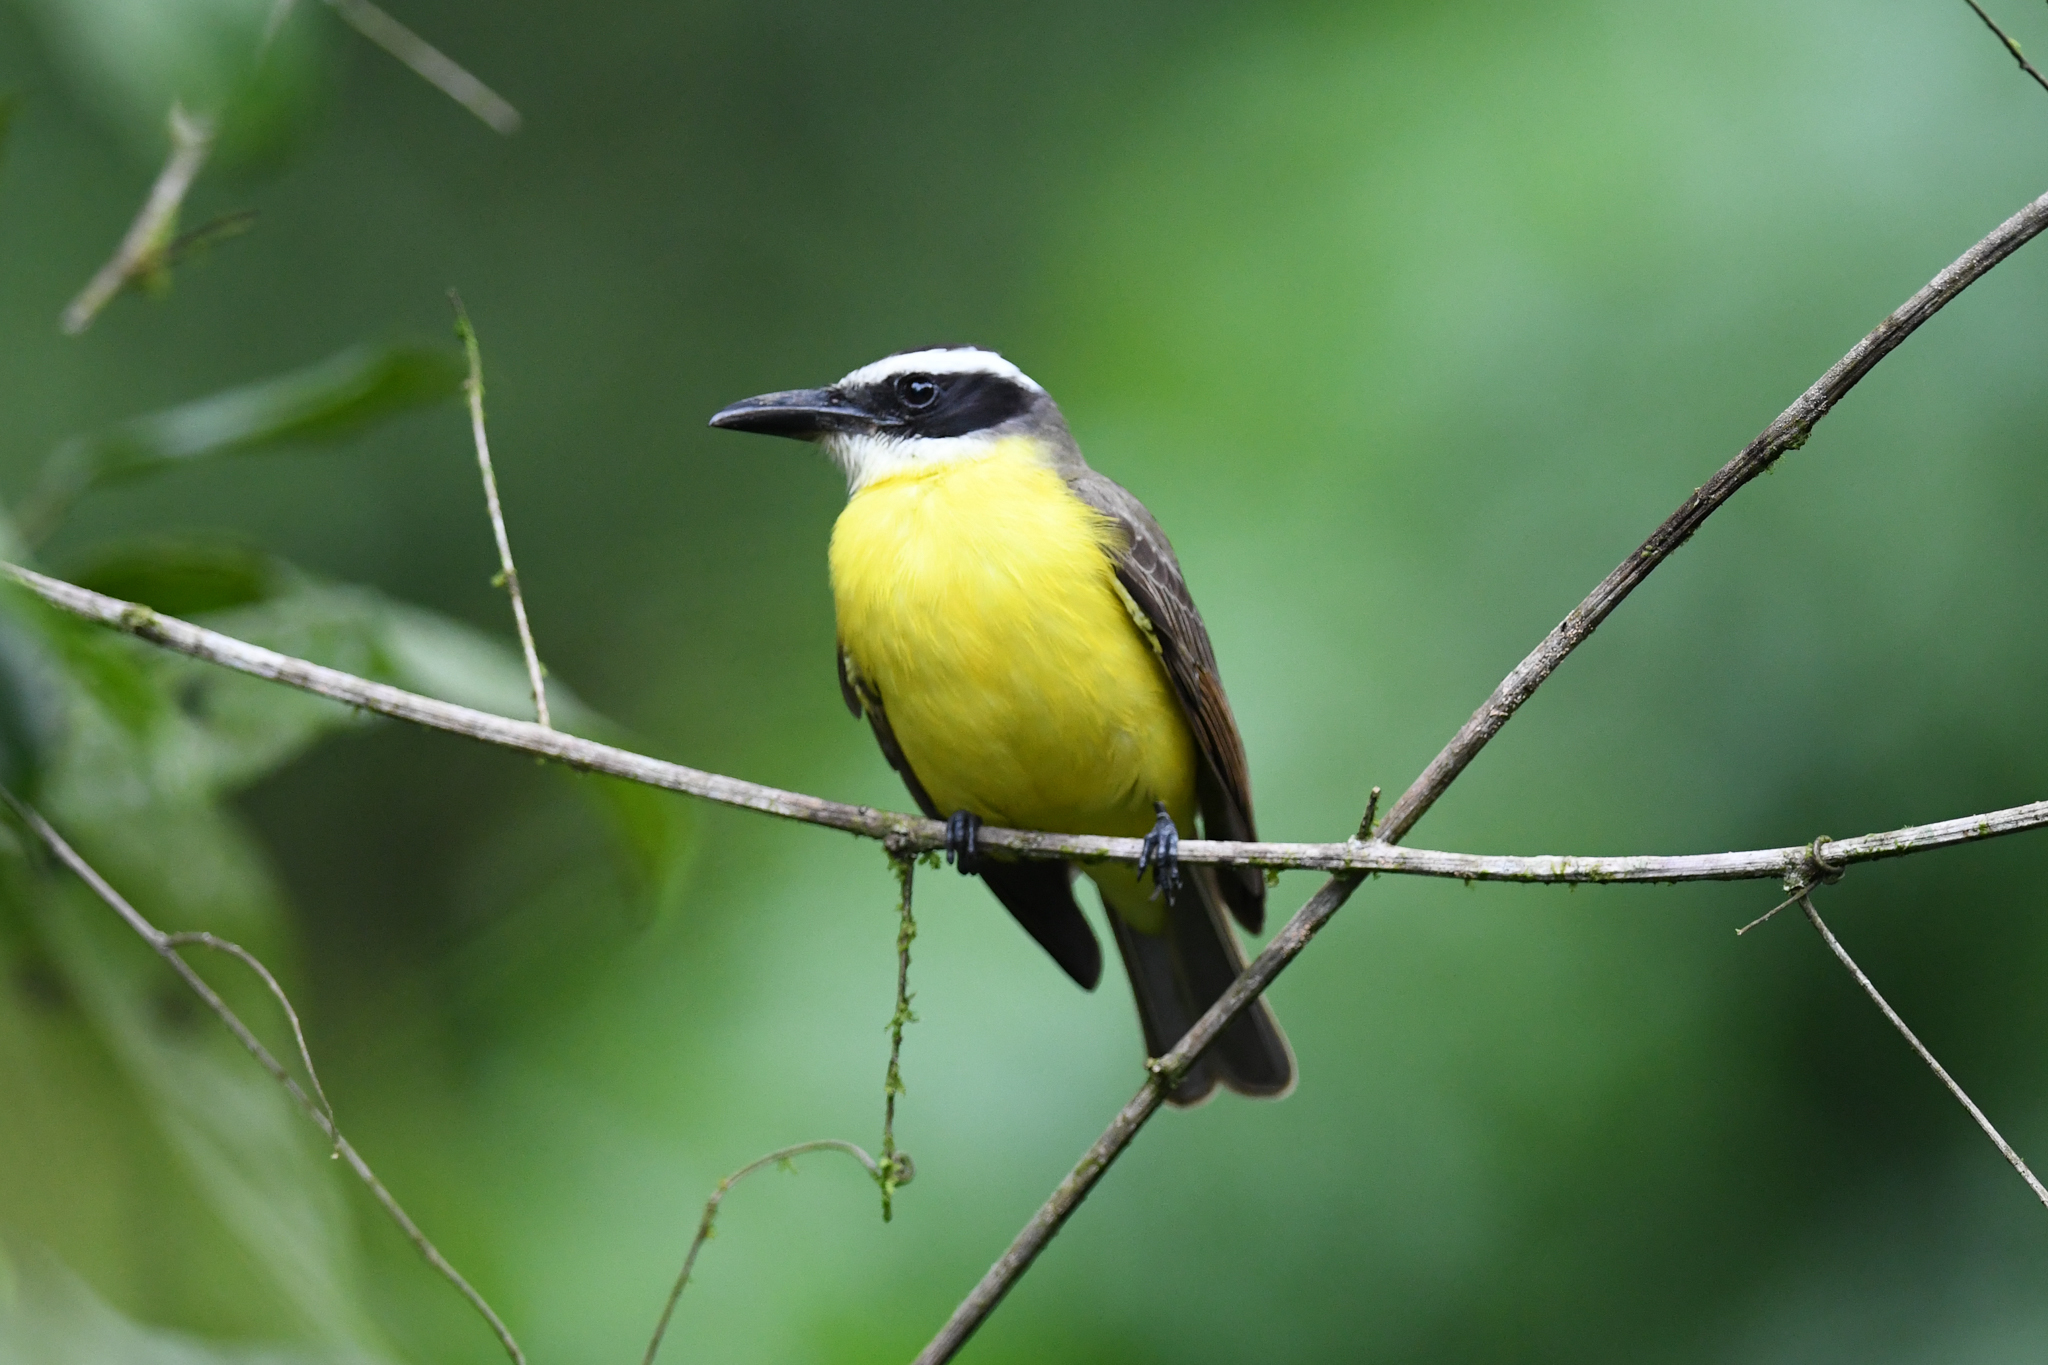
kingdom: Animalia
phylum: Chordata
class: Aves
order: Passeriformes
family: Tyrannidae
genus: Megarynchus
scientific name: Megarynchus pitangua
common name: Boat-billed flycatcher
